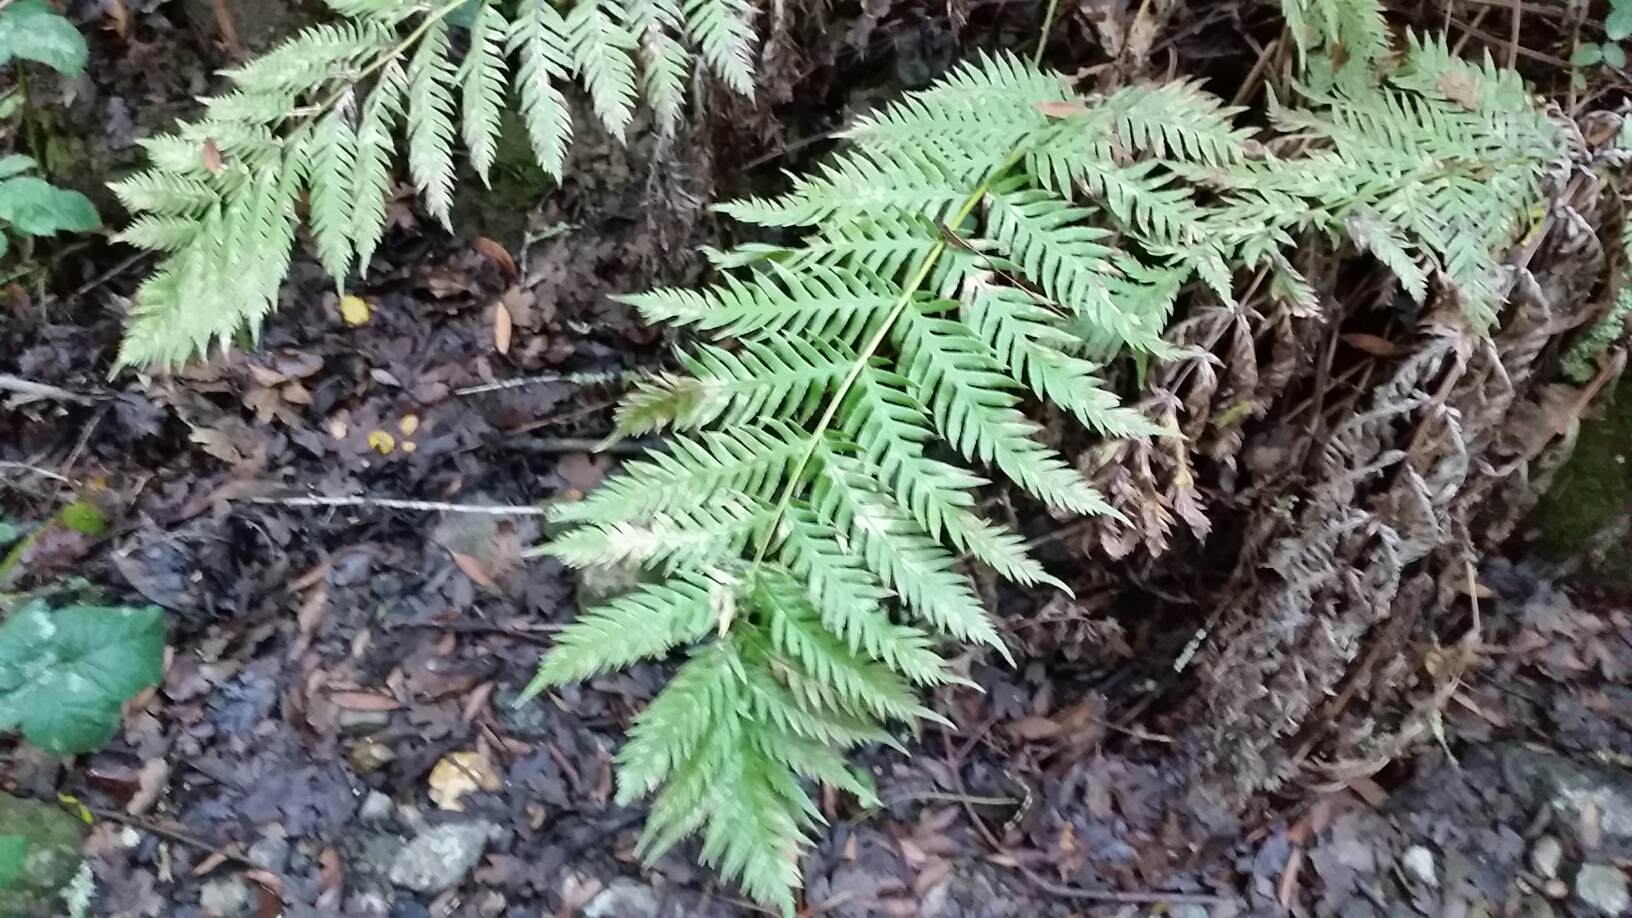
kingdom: Plantae
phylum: Tracheophyta
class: Polypodiopsida
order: Polypodiales
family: Blechnaceae
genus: Woodwardia
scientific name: Woodwardia fimbriata
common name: Giant chain fern
